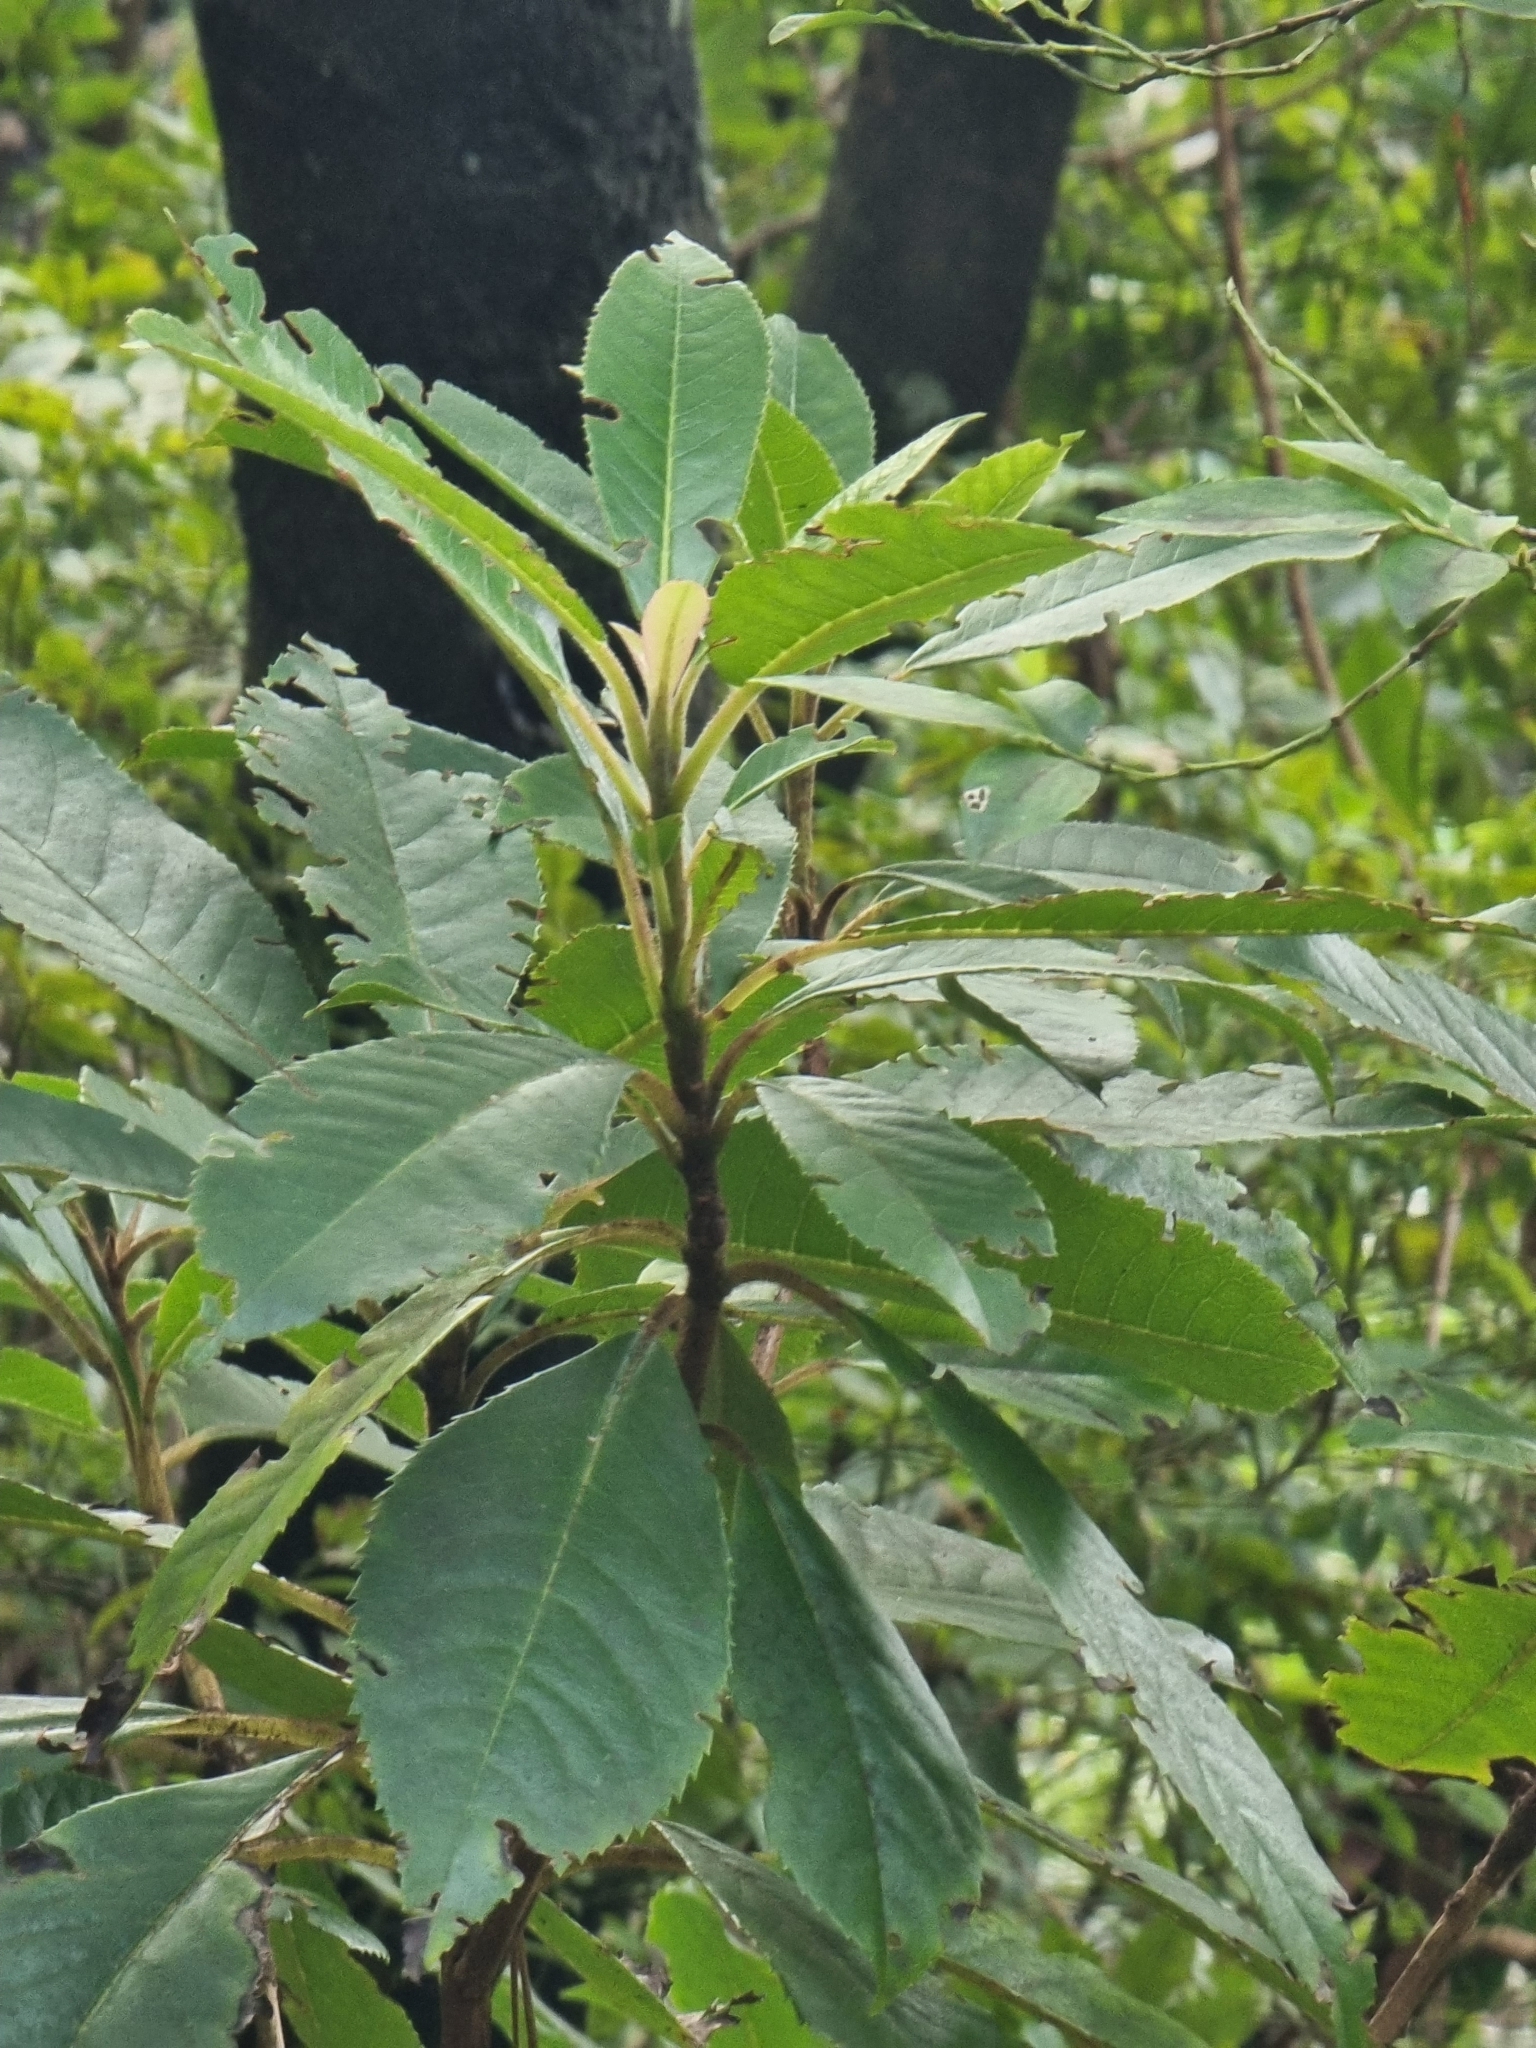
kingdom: Plantae
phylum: Tracheophyta
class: Magnoliopsida
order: Ericales
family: Clethraceae
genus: Clethra
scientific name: Clethra arborea
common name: Lily-of-the-valley-tree
